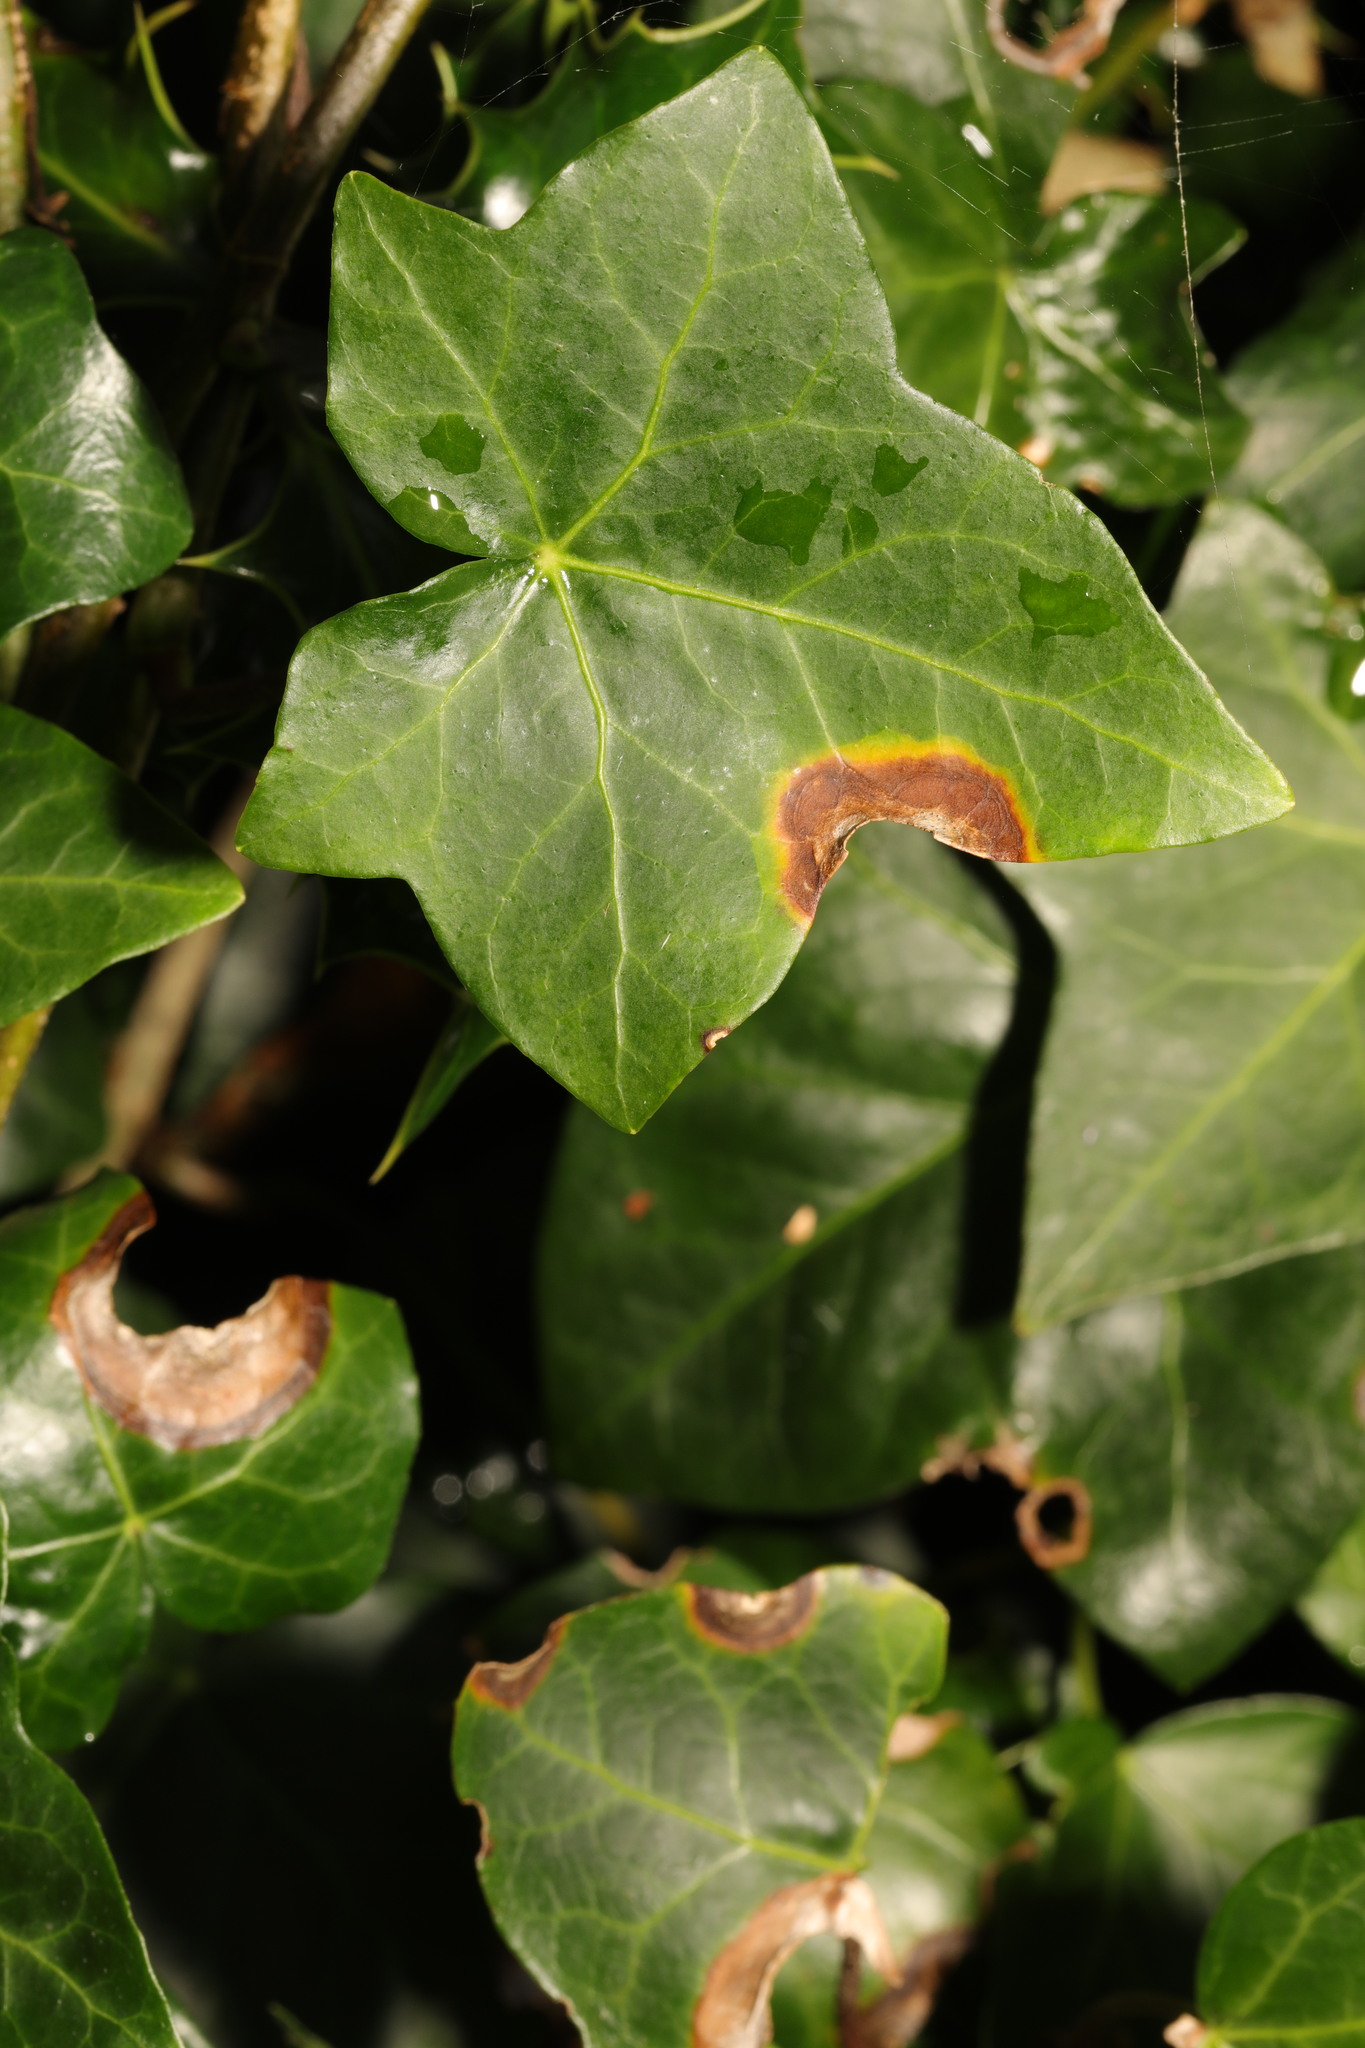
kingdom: Fungi
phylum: Ascomycota
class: Dothideomycetes
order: Pleosporales
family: Didymellaceae
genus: Boeremia
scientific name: Boeremia hedericola
